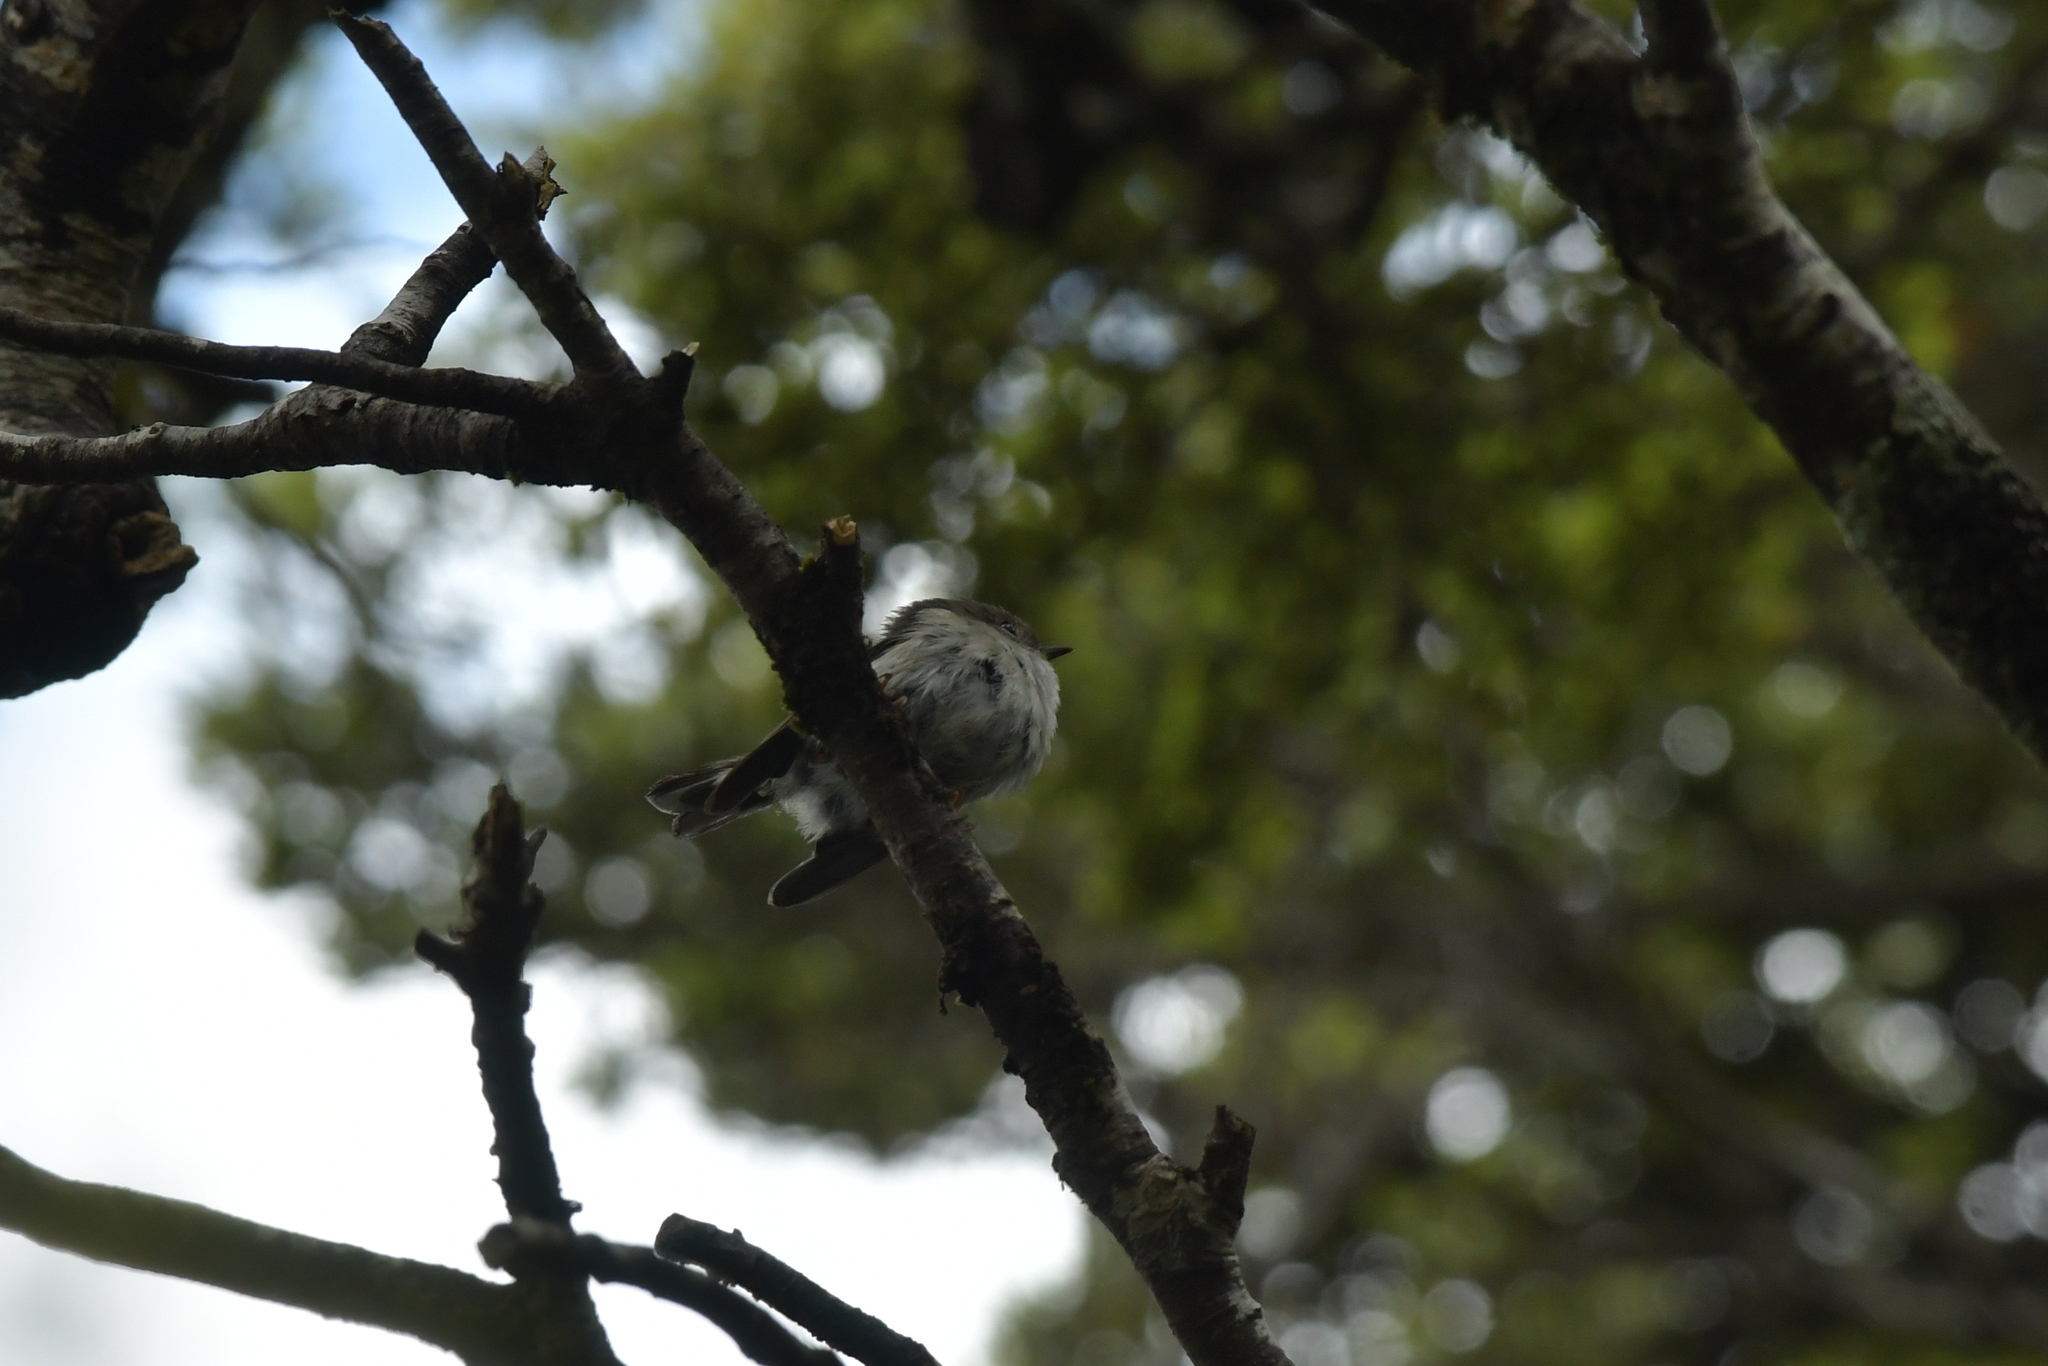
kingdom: Animalia
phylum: Chordata
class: Aves
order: Passeriformes
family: Petroicidae
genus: Petroica
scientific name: Petroica macrocephala
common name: Tomtit
